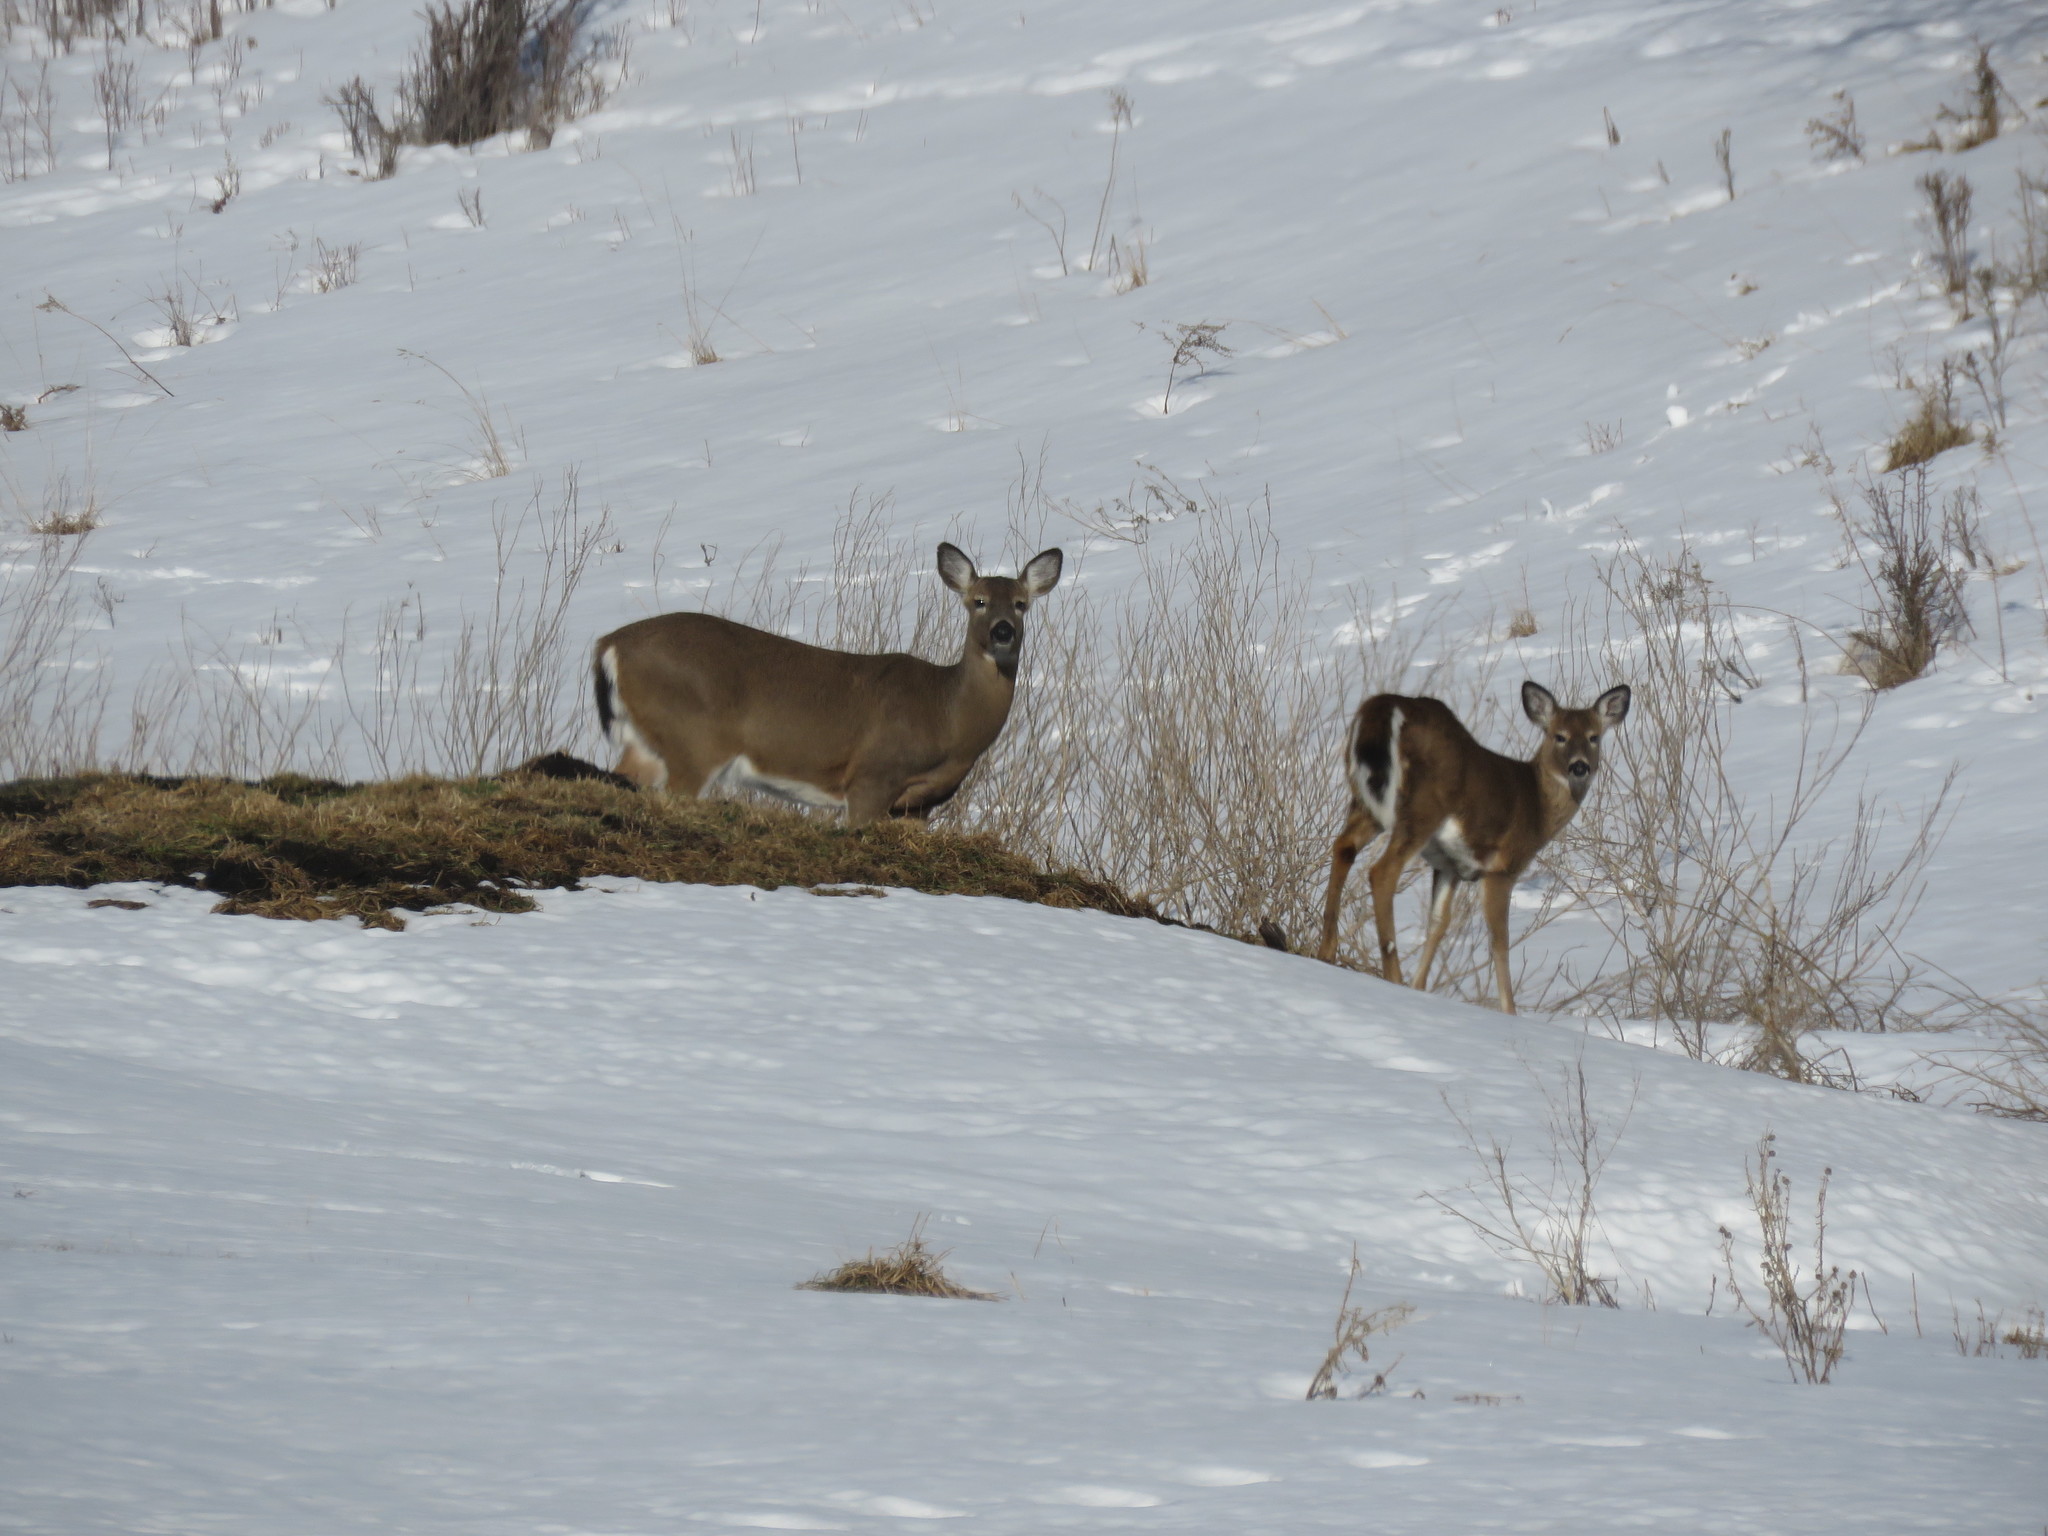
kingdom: Animalia
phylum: Chordata
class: Mammalia
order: Artiodactyla
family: Cervidae
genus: Odocoileus
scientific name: Odocoileus virginianus
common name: White-tailed deer
